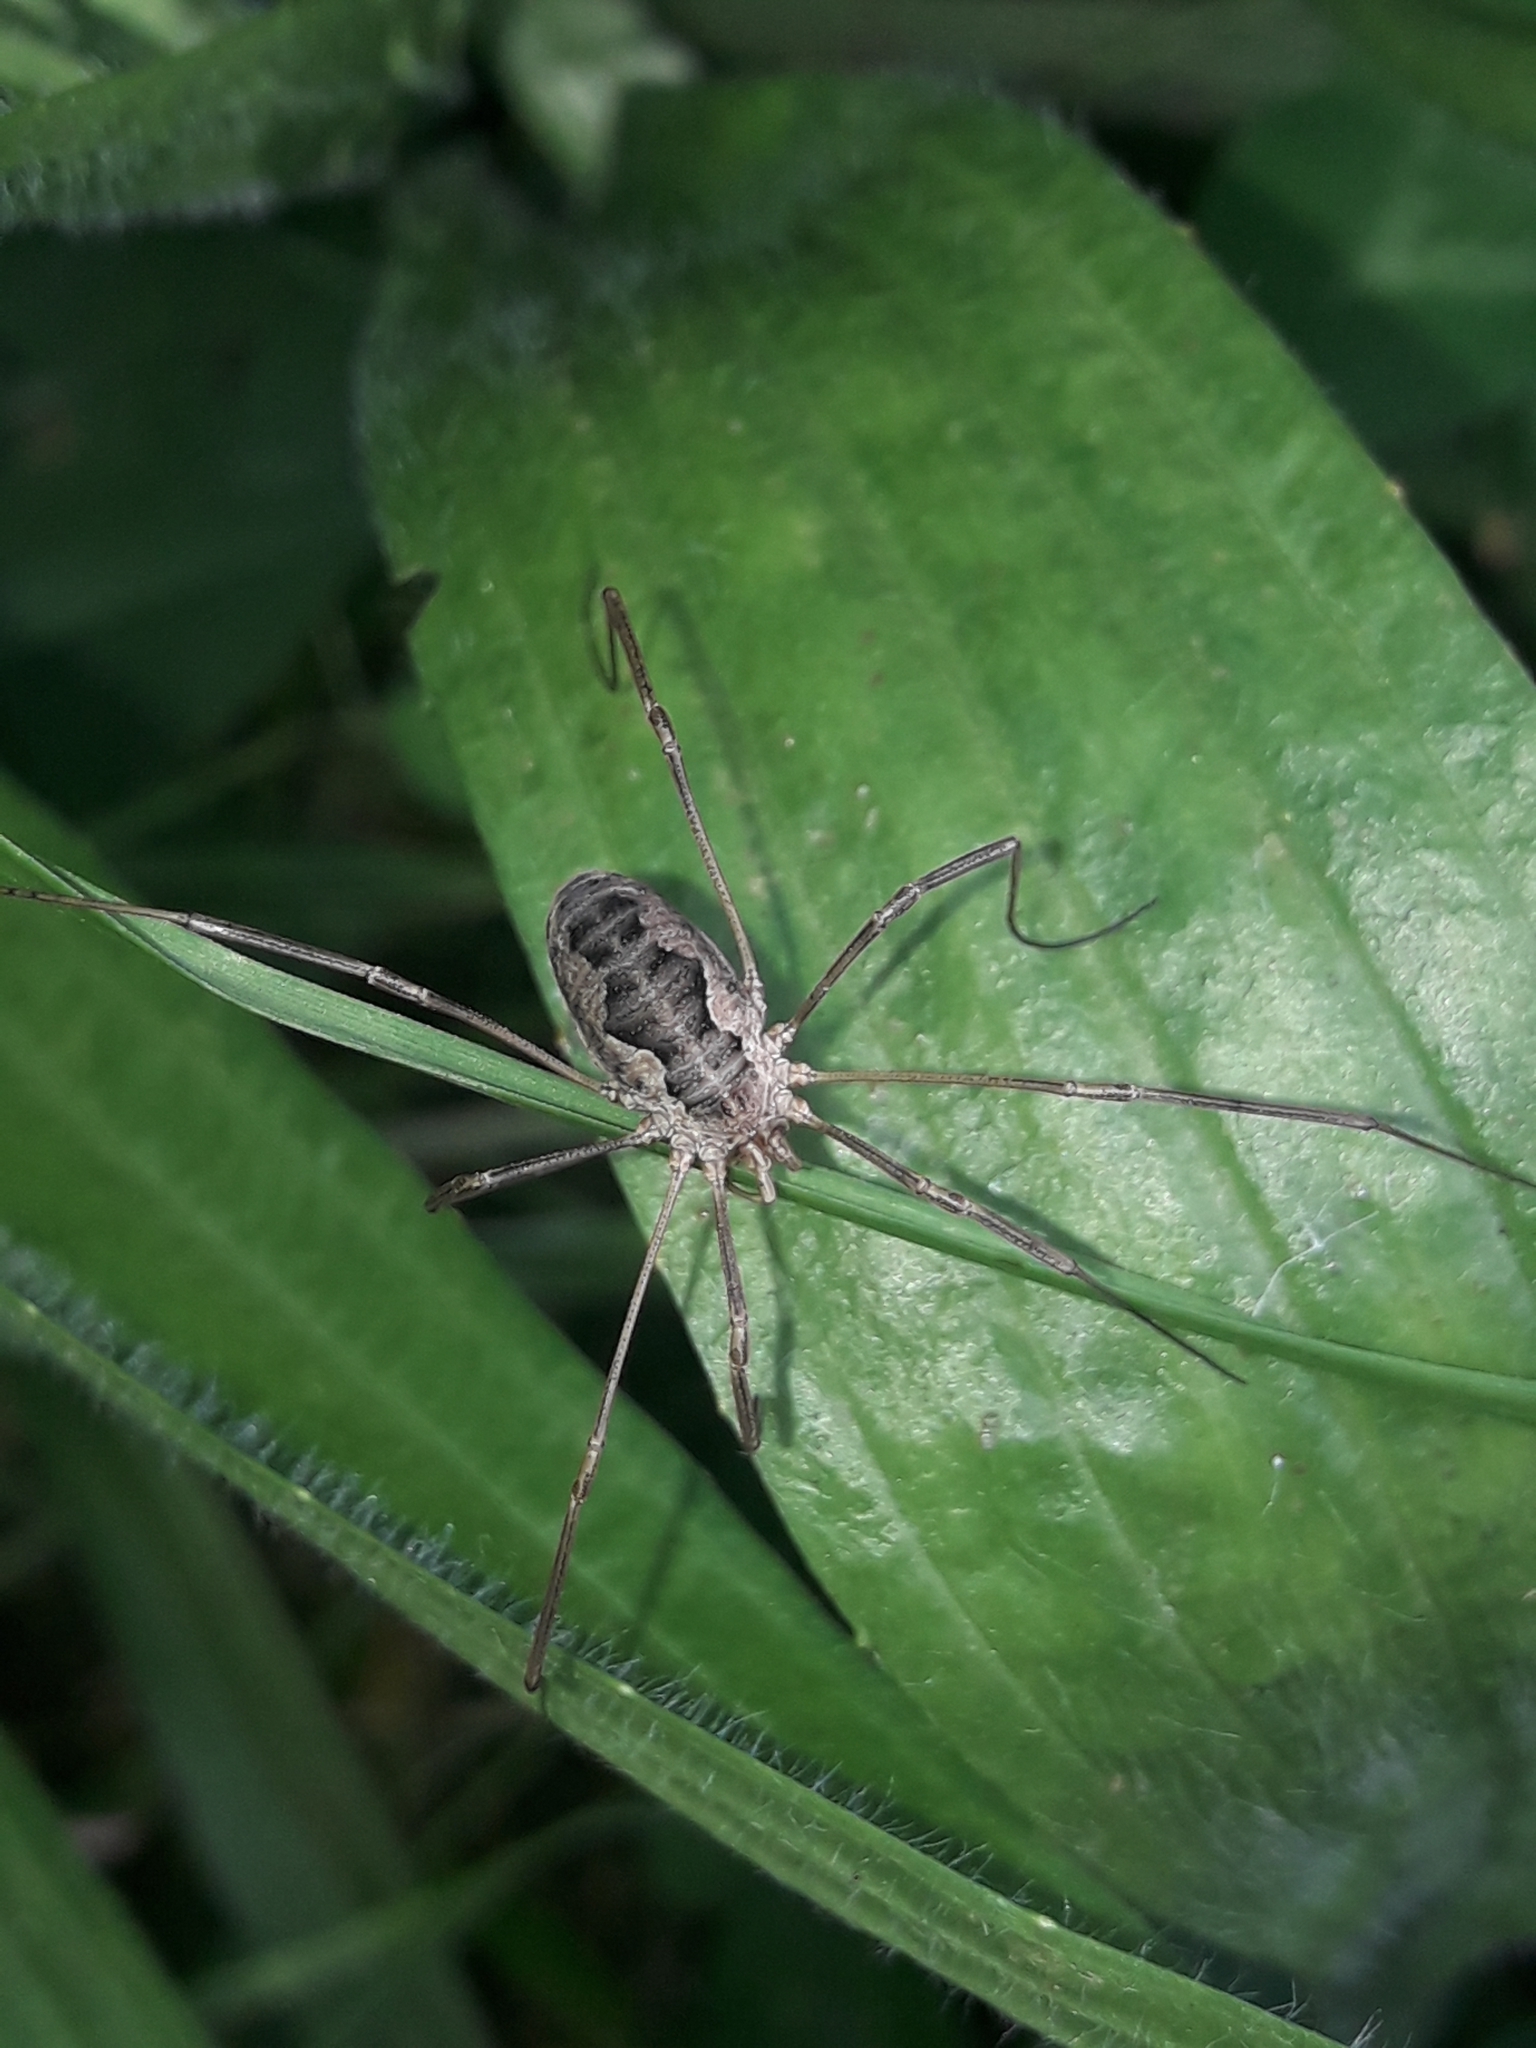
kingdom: Animalia
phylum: Arthropoda
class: Arachnida
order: Opiliones
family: Phalangiidae
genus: Phalangium
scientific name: Phalangium opilio
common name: Daddy longleg
